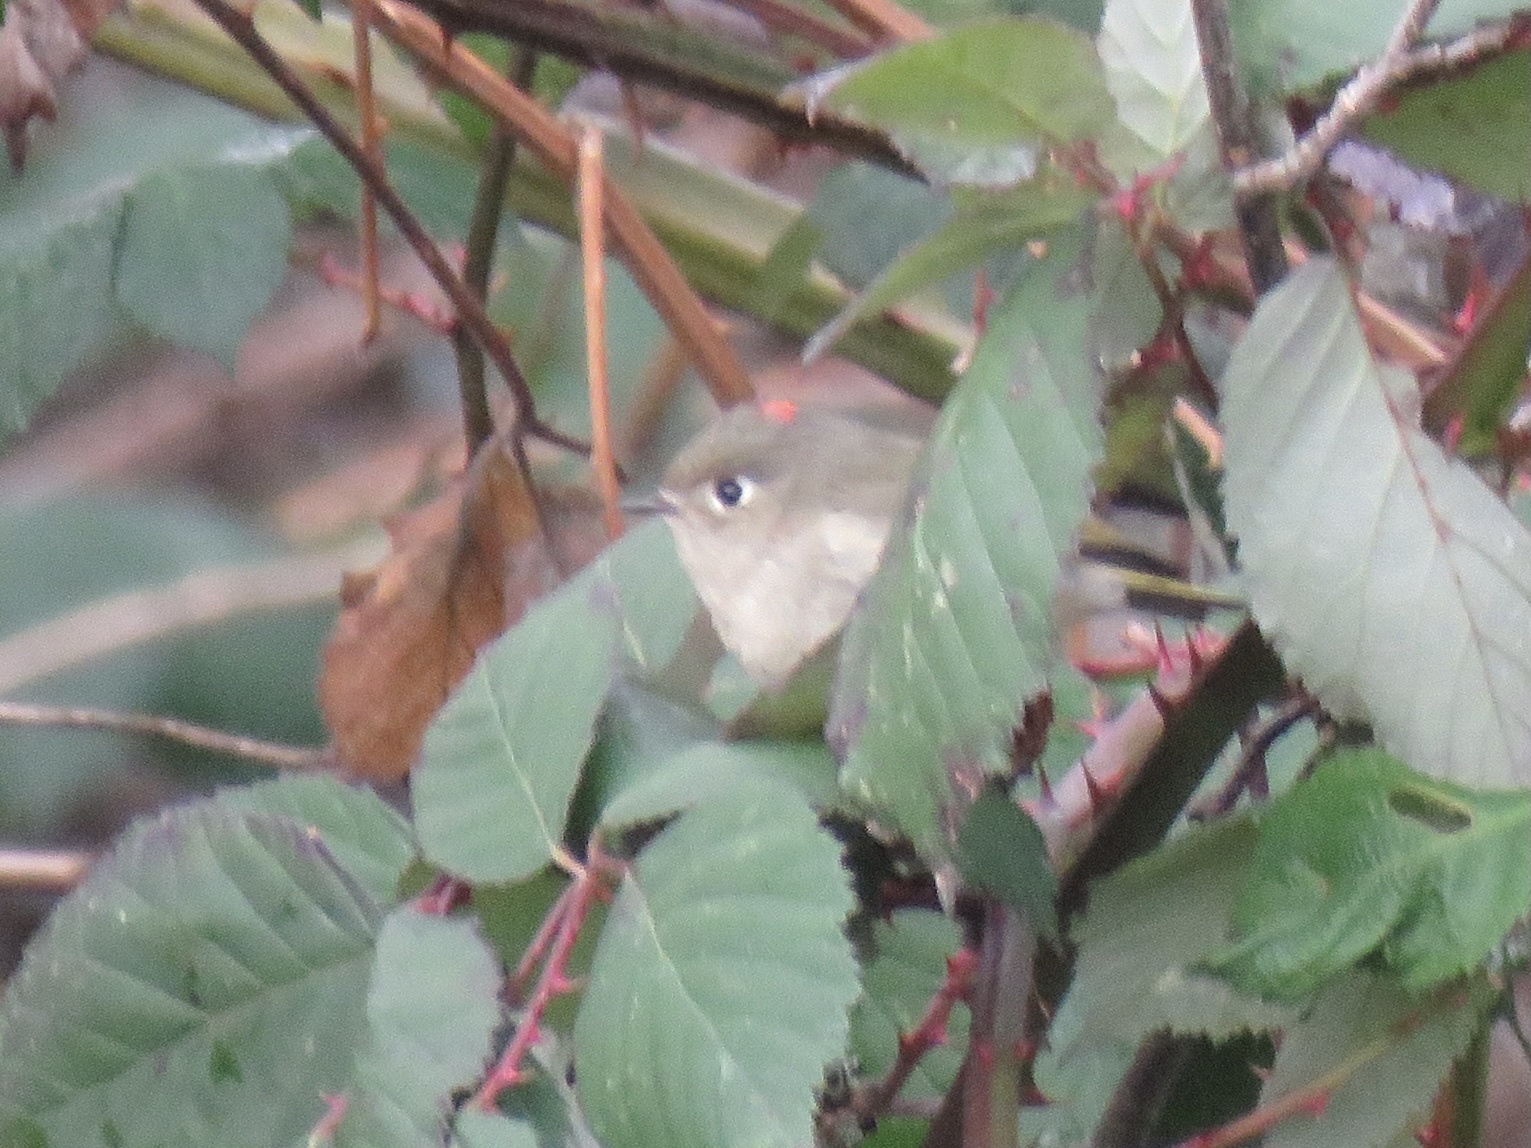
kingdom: Animalia
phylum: Chordata
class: Aves
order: Passeriformes
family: Regulidae
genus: Regulus
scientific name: Regulus calendula
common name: Ruby-crowned kinglet
